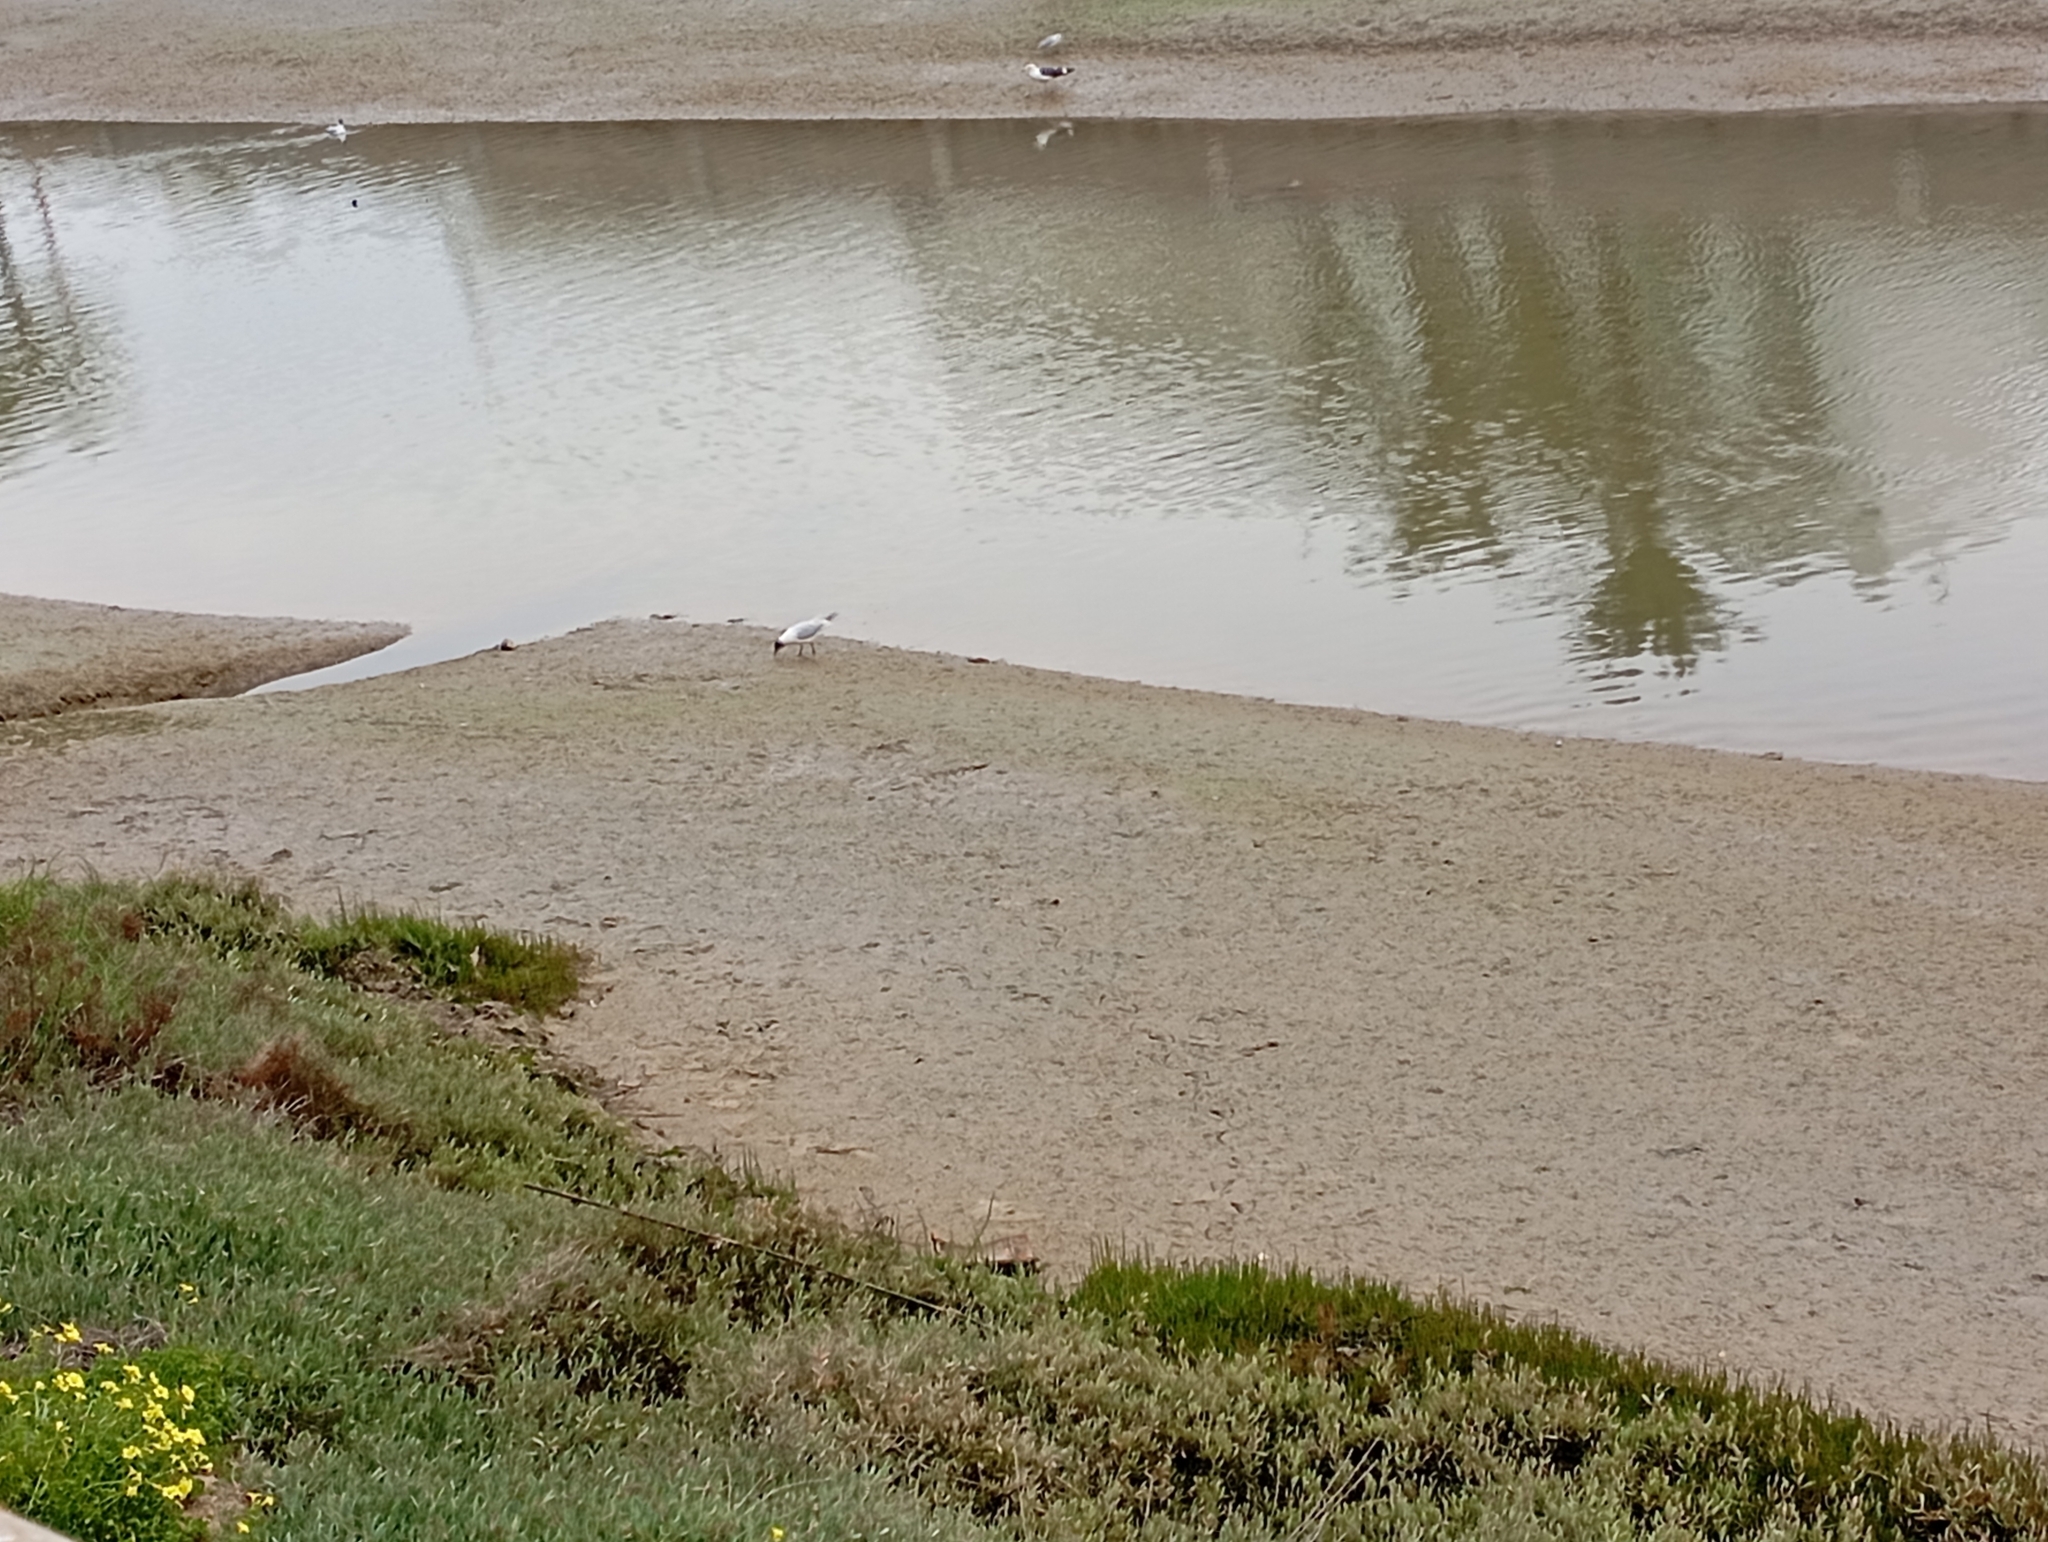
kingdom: Animalia
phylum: Chordata
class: Aves
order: Charadriiformes
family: Laridae
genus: Chroicocephalus
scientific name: Chroicocephalus ridibundus
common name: Black-headed gull
